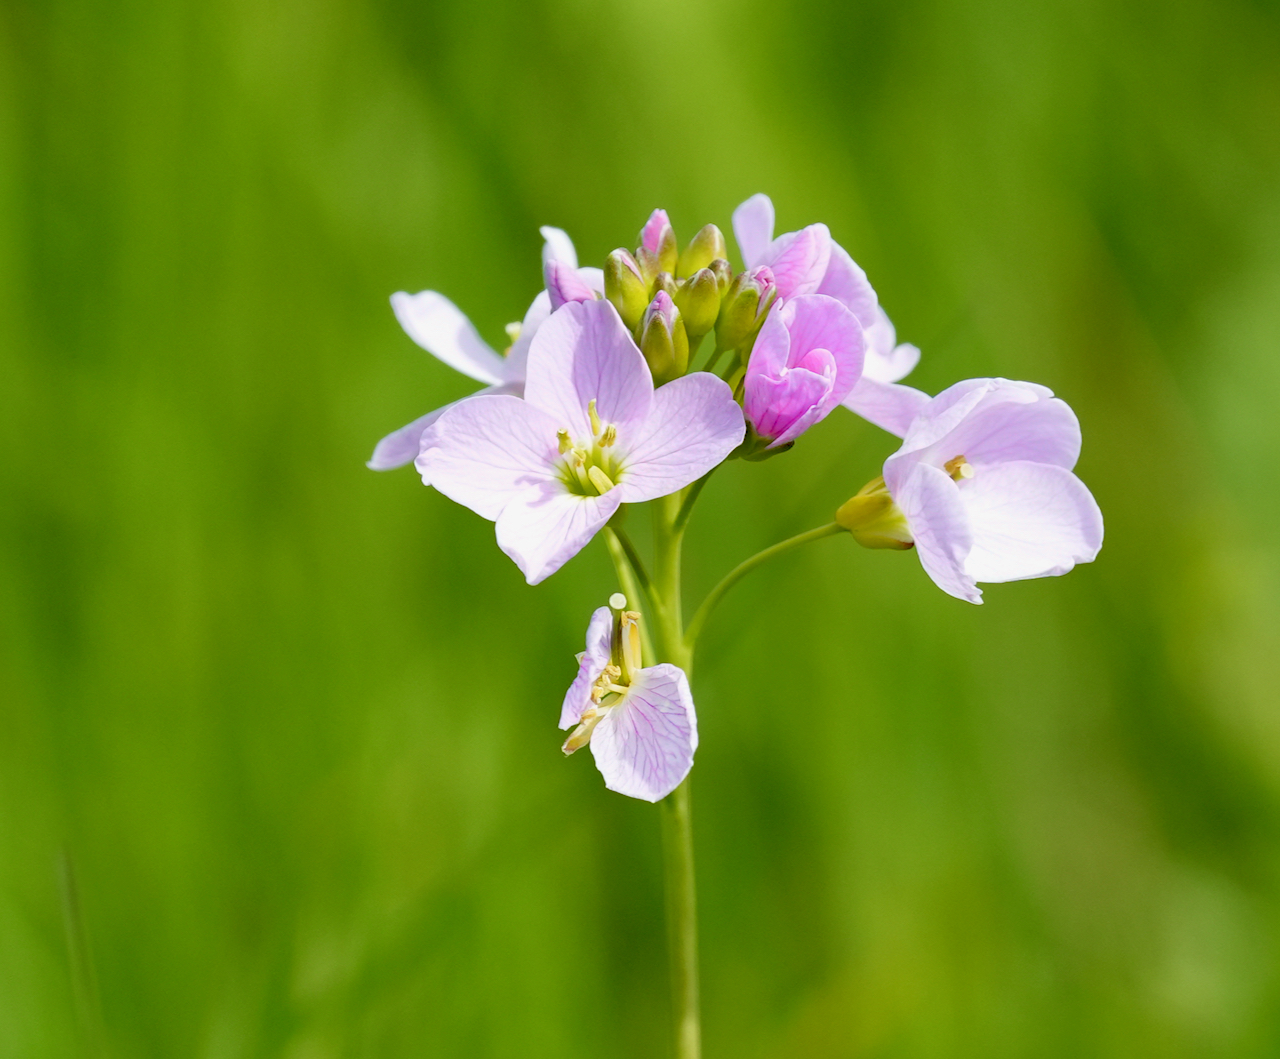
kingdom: Plantae
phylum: Tracheophyta
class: Magnoliopsida
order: Brassicales
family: Brassicaceae
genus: Cardamine
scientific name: Cardamine pratensis
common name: Cuckoo flower
